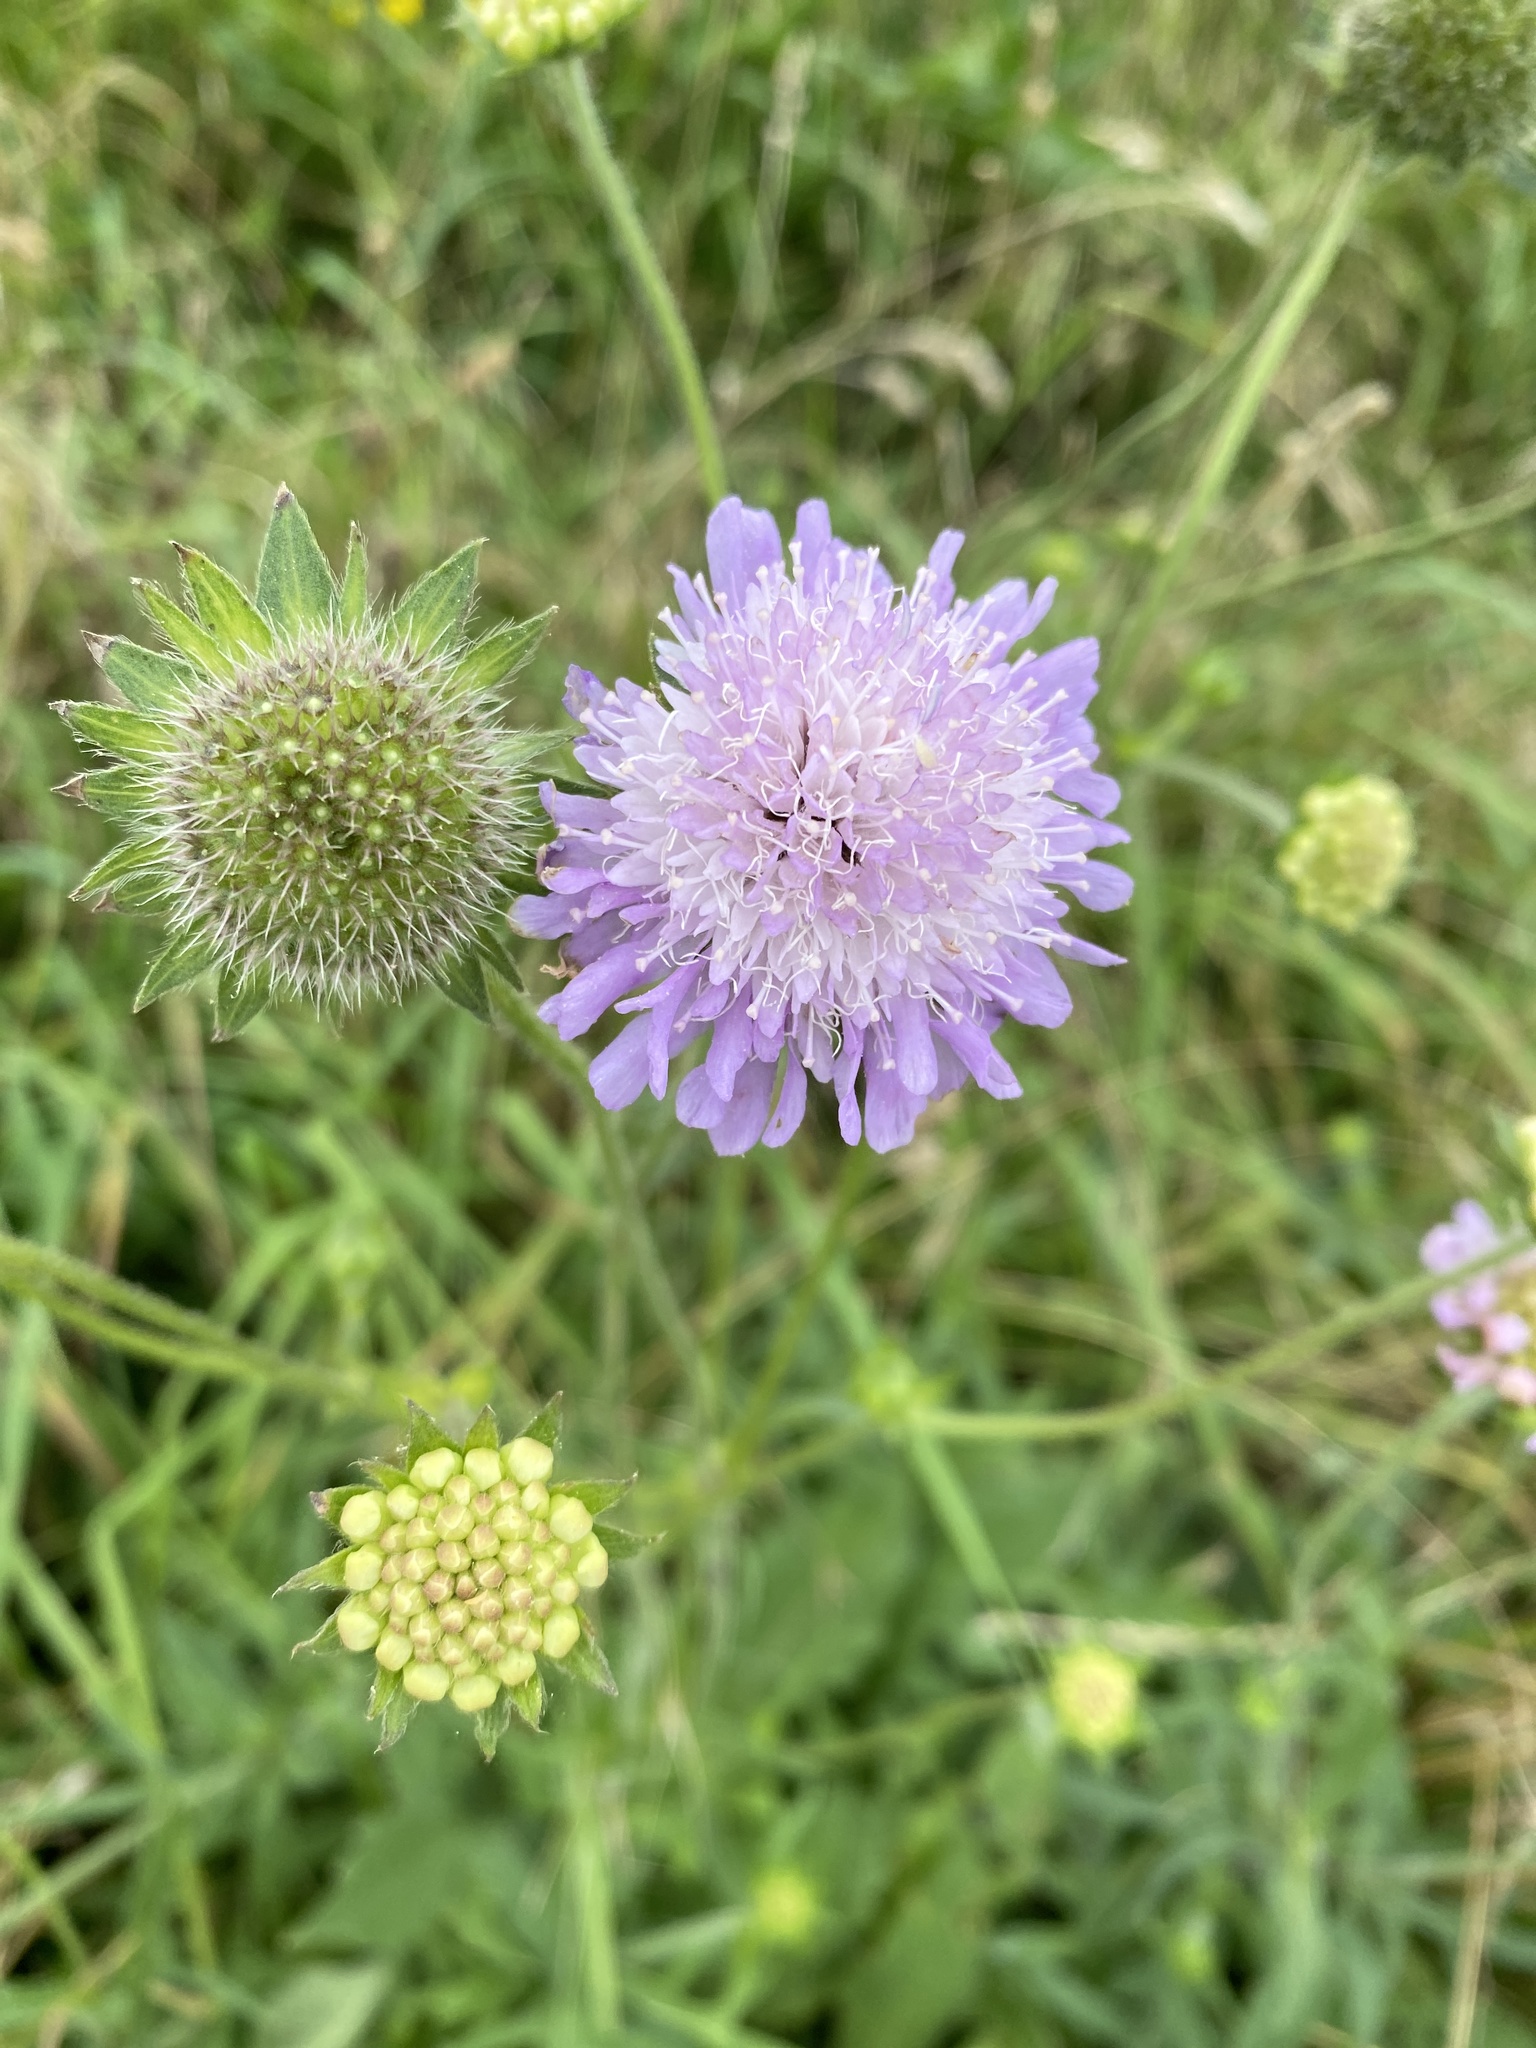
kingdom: Plantae
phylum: Tracheophyta
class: Magnoliopsida
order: Dipsacales
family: Caprifoliaceae
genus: Knautia
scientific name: Knautia arvensis
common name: Field scabiosa
